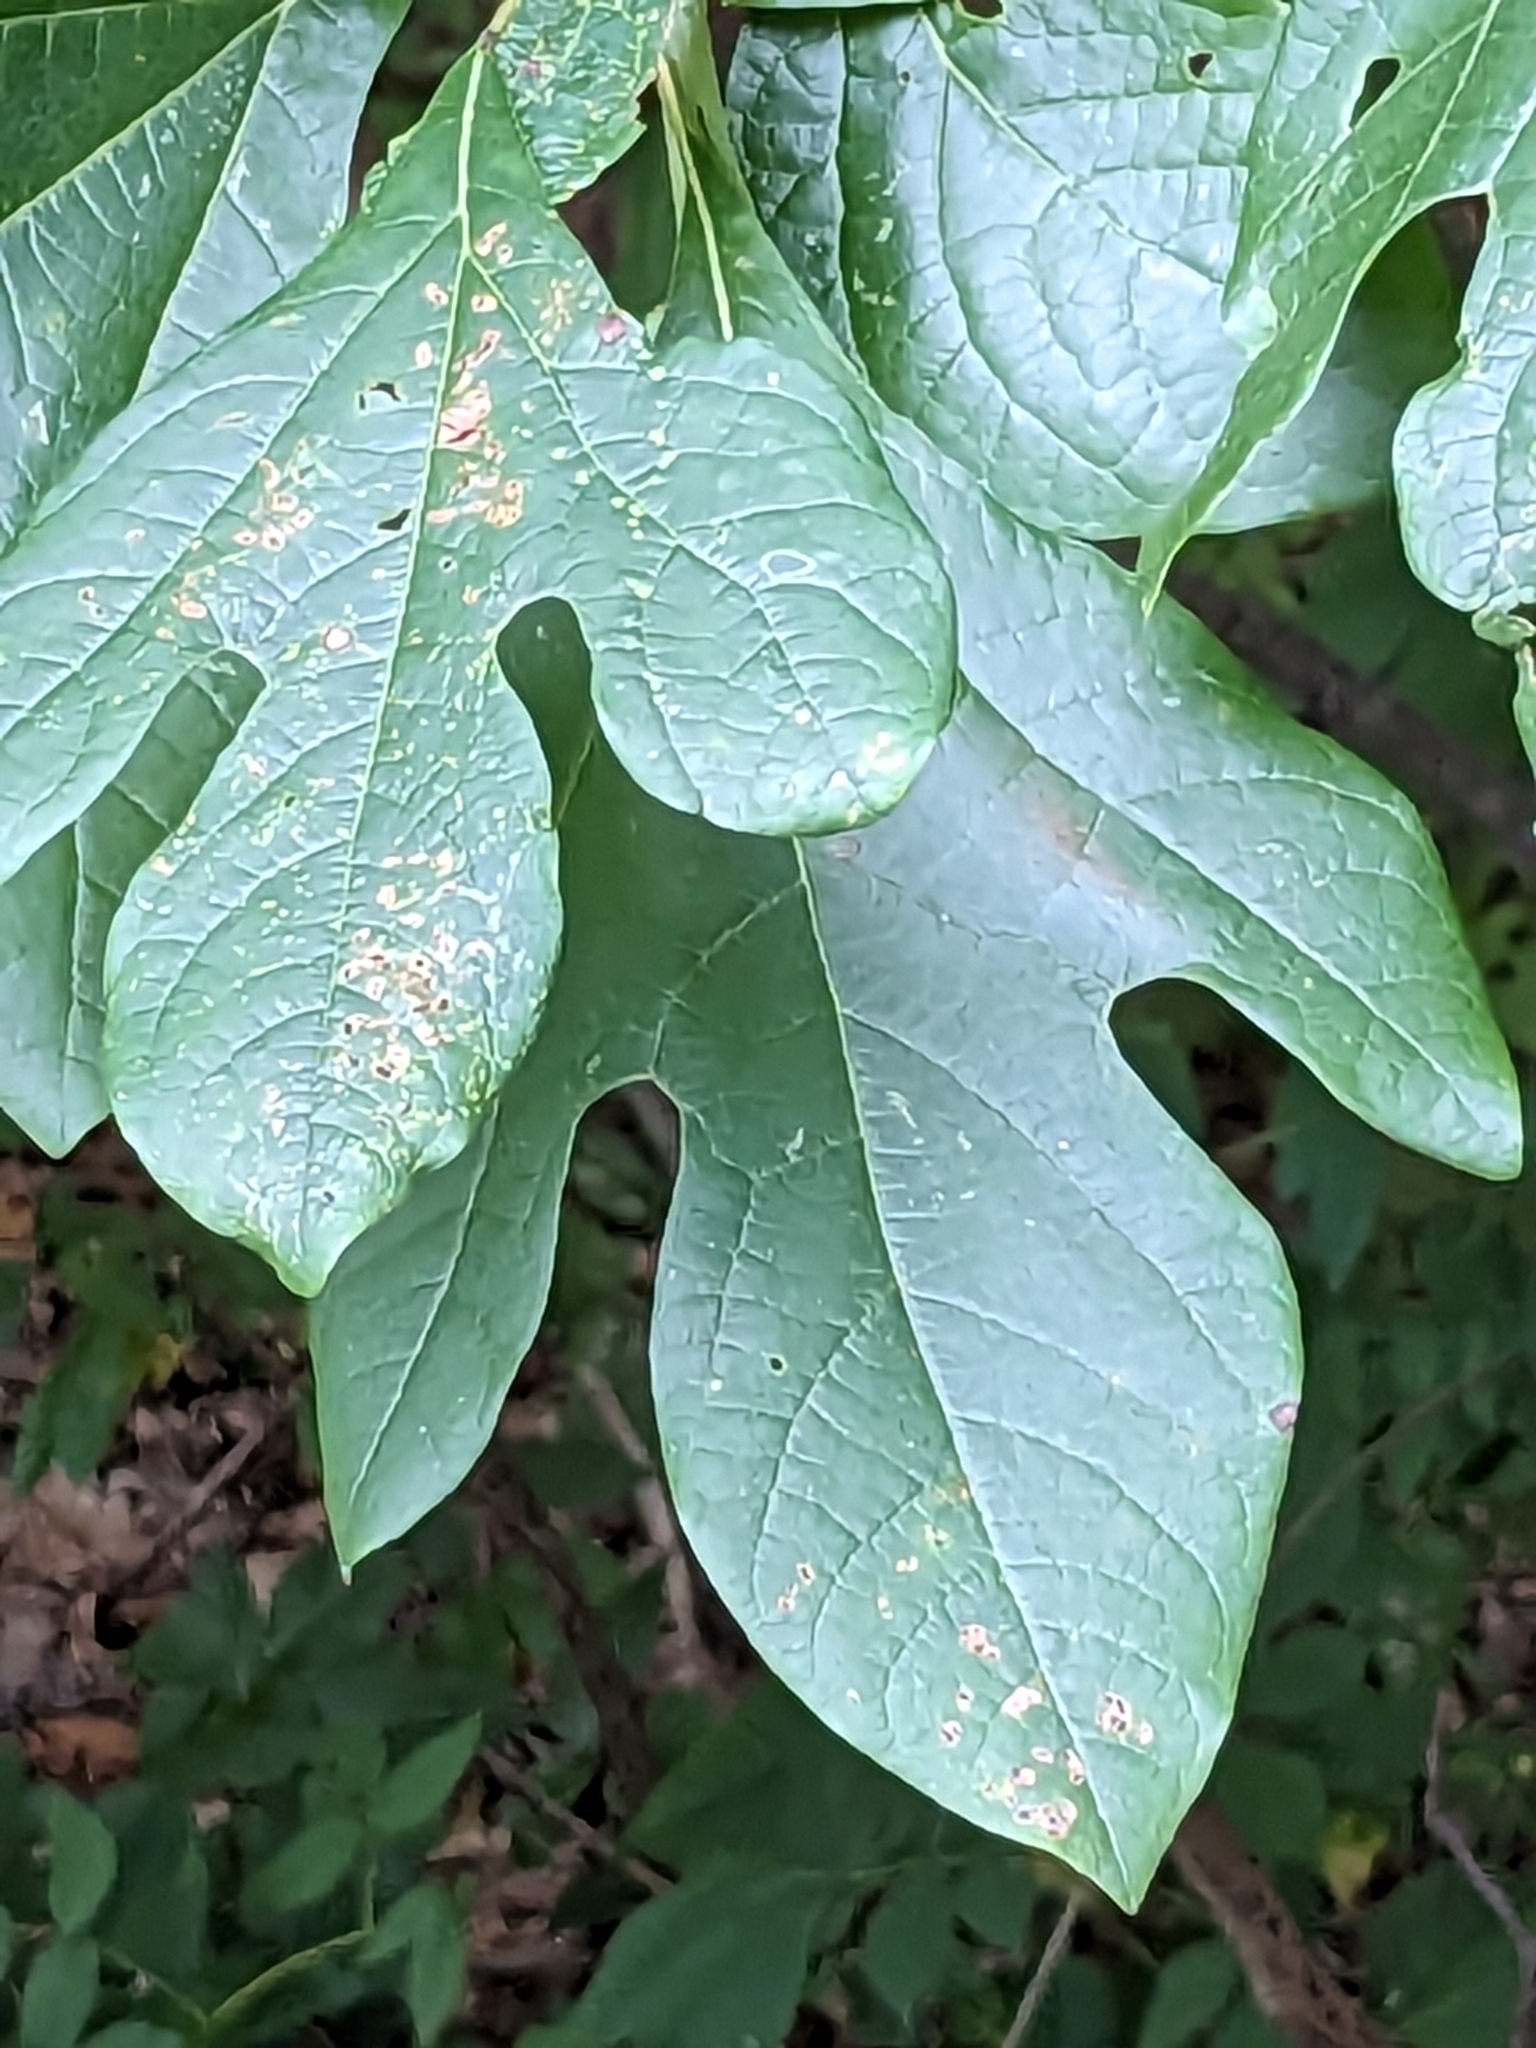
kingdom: Plantae
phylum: Tracheophyta
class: Magnoliopsida
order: Laurales
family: Lauraceae
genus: Sassafras
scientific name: Sassafras albidum
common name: Sassafras
